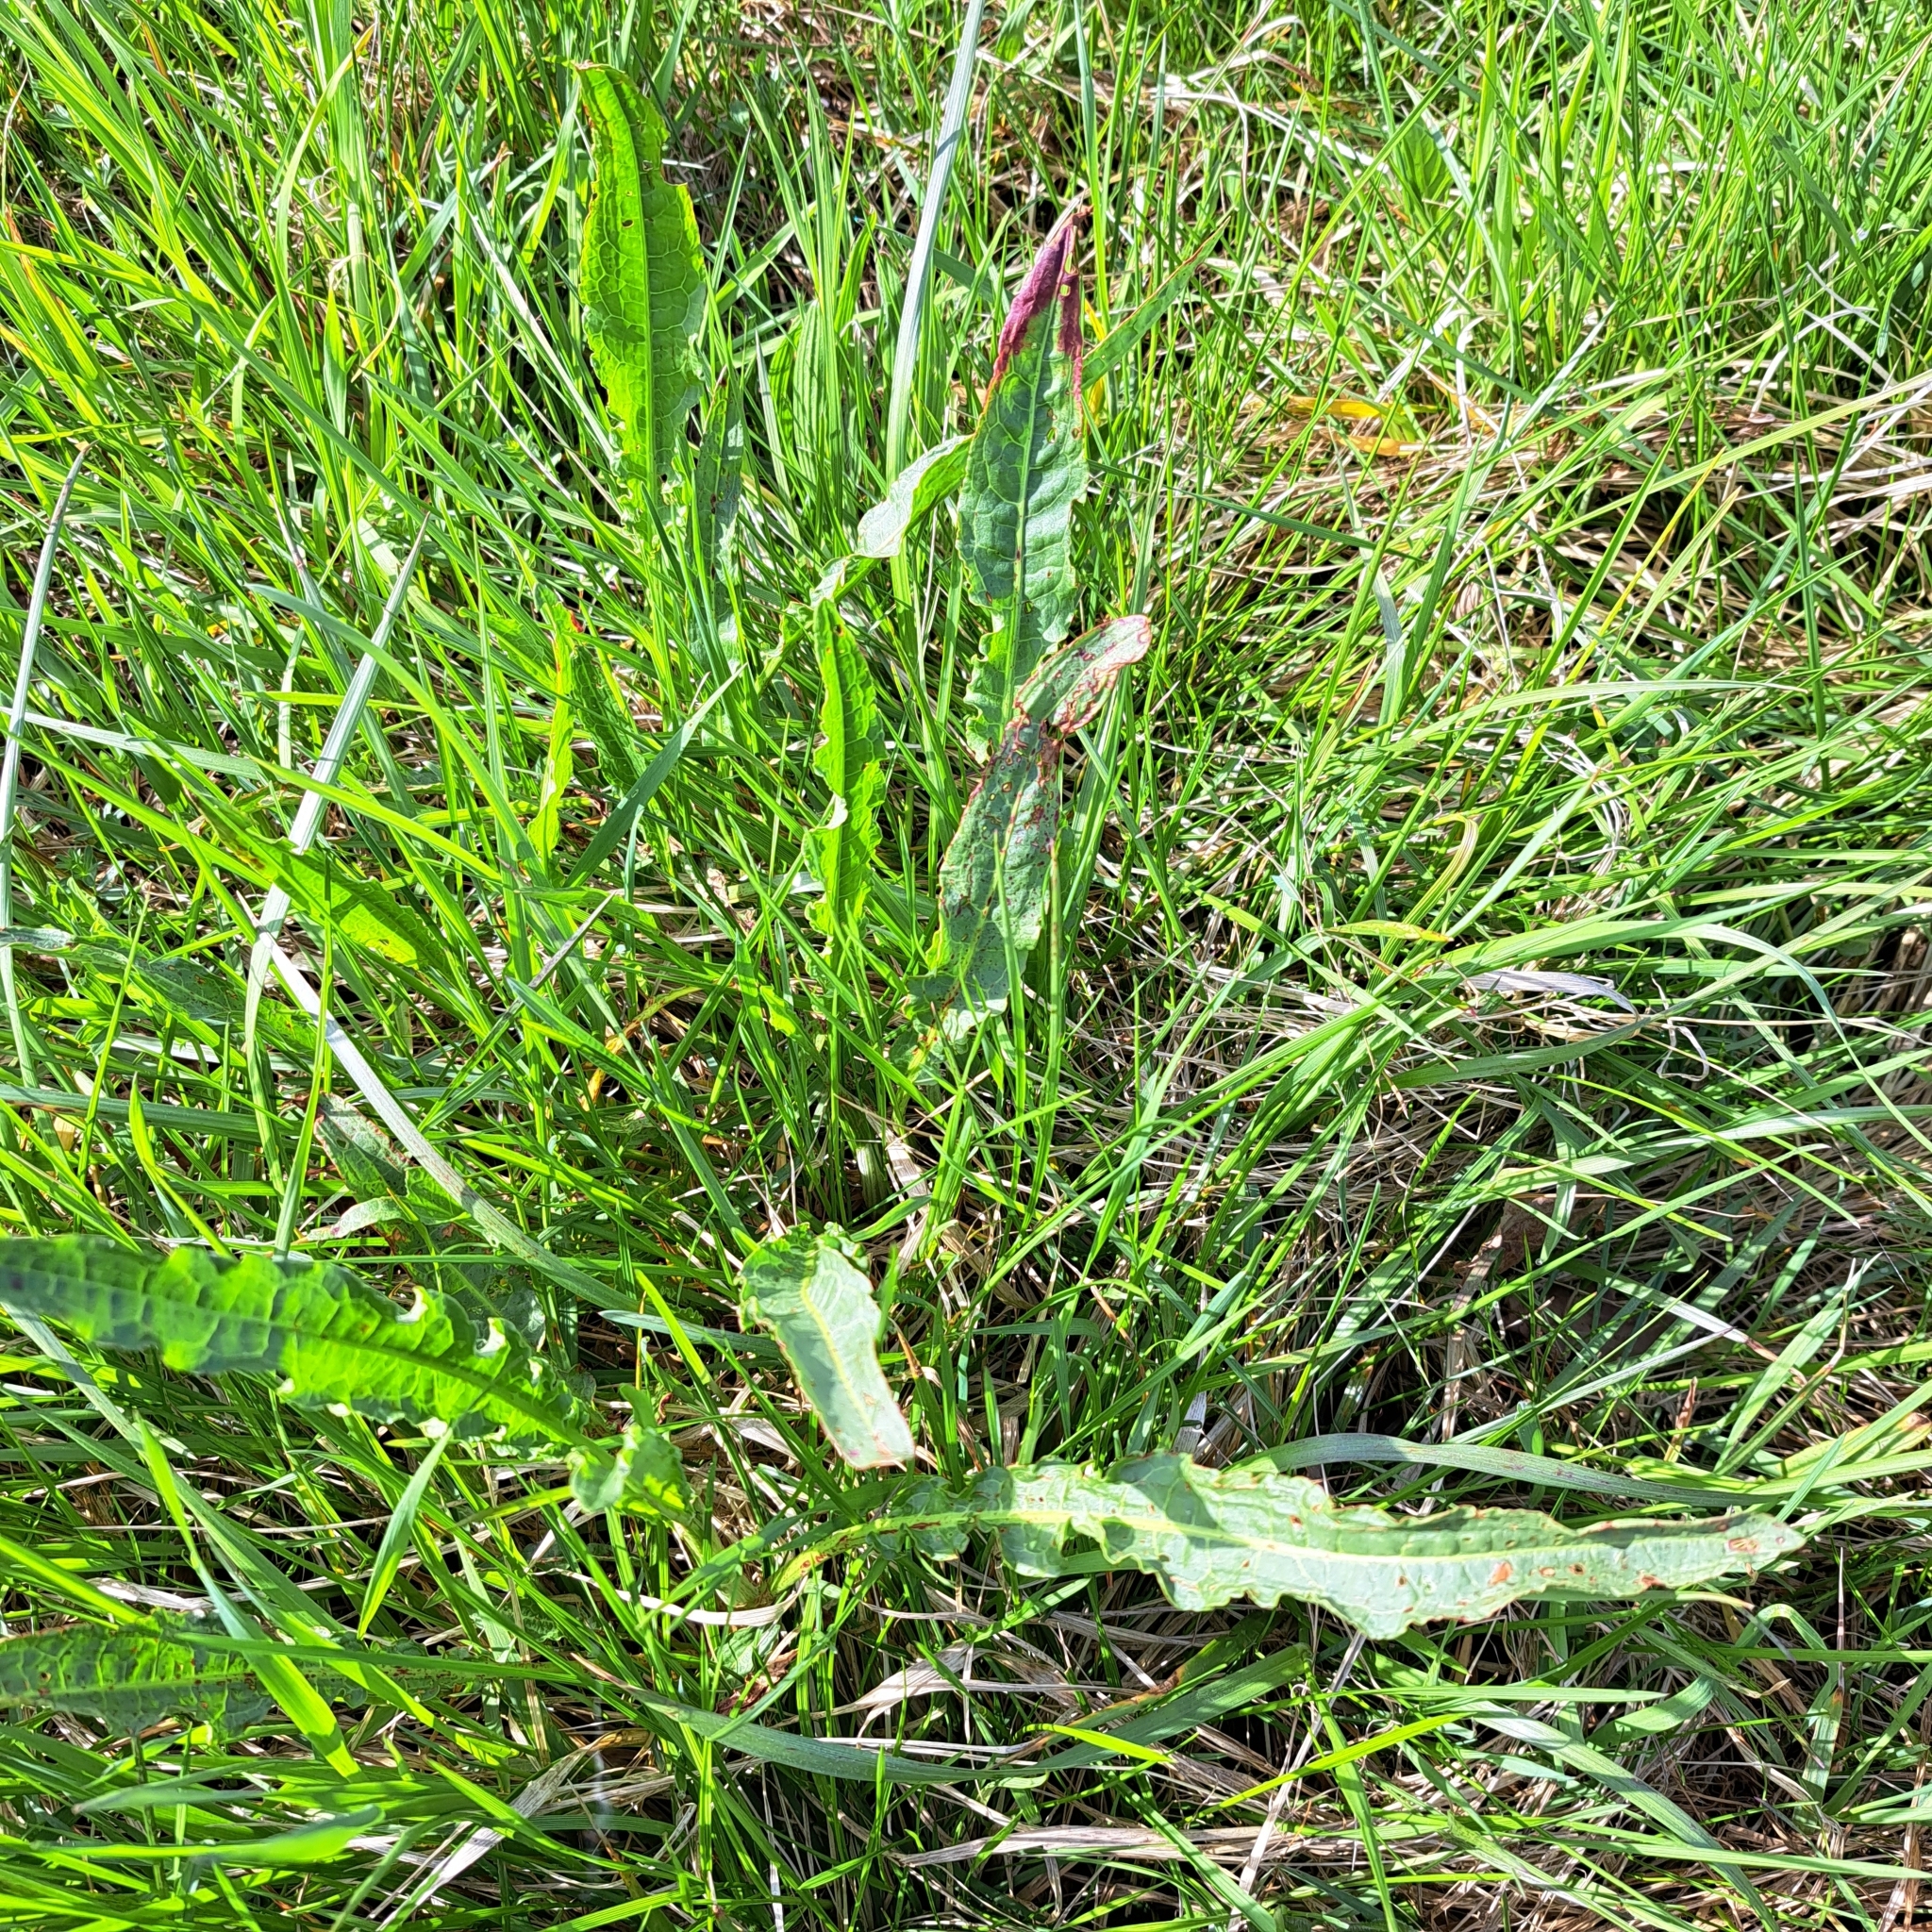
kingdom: Plantae
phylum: Tracheophyta
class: Magnoliopsida
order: Caryophyllales
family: Polygonaceae
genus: Rumex
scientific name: Rumex crispus
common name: Curled dock
